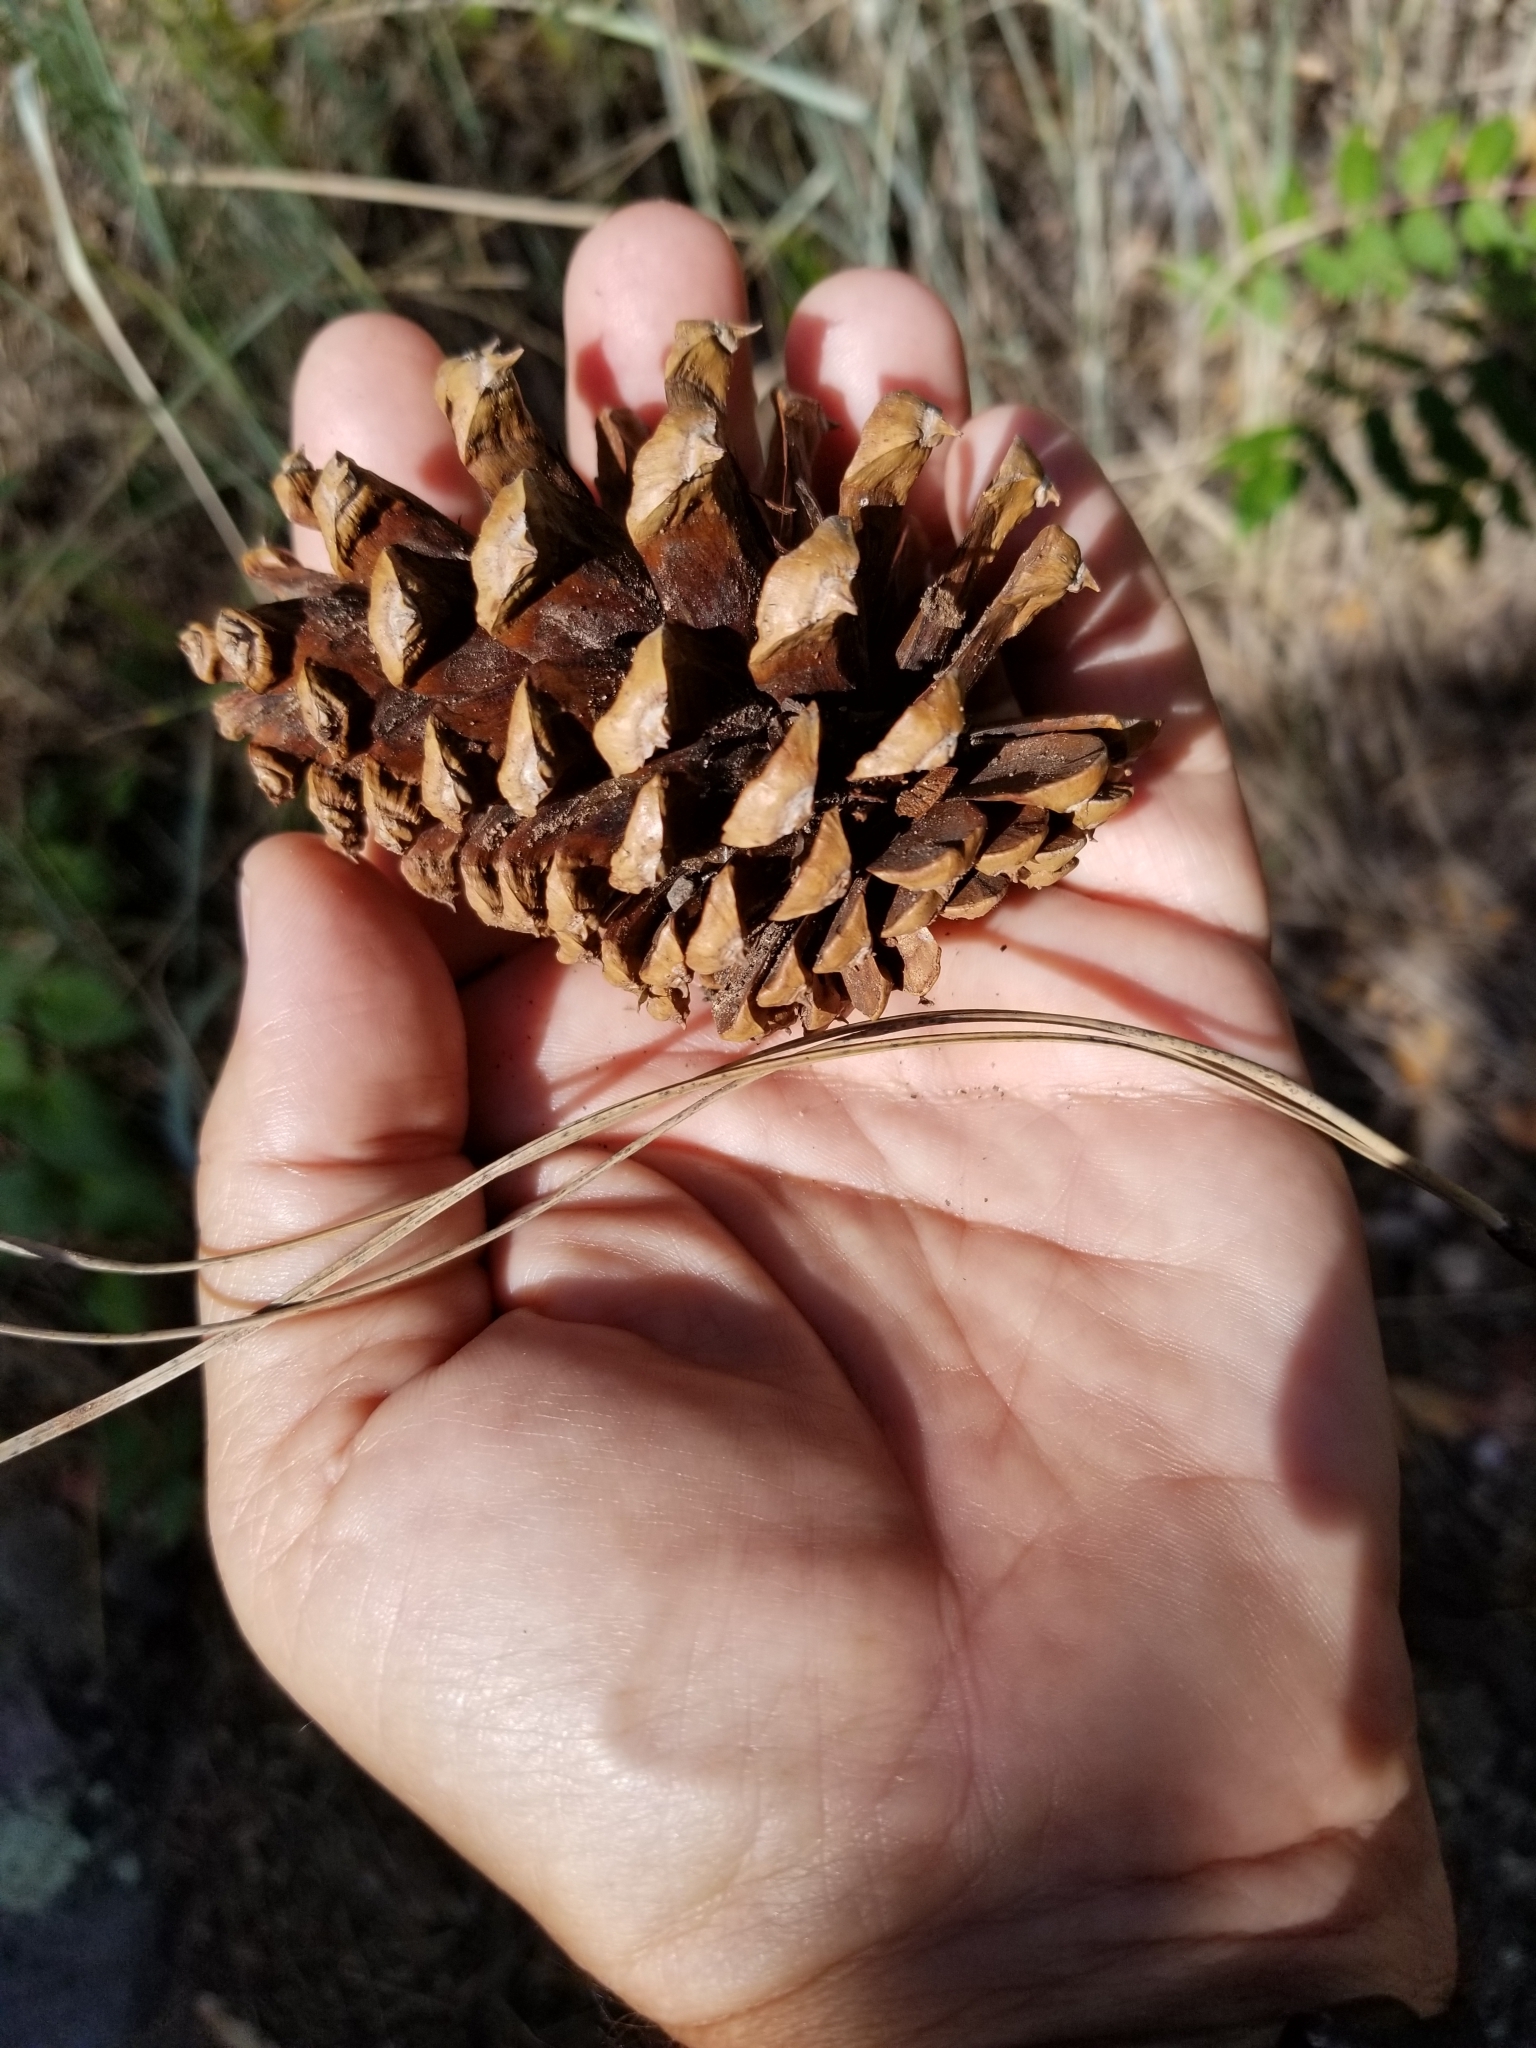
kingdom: Plantae
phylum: Tracheophyta
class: Pinopsida
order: Pinales
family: Pinaceae
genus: Pinus
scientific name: Pinus ponderosa
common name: Western yellow-pine
